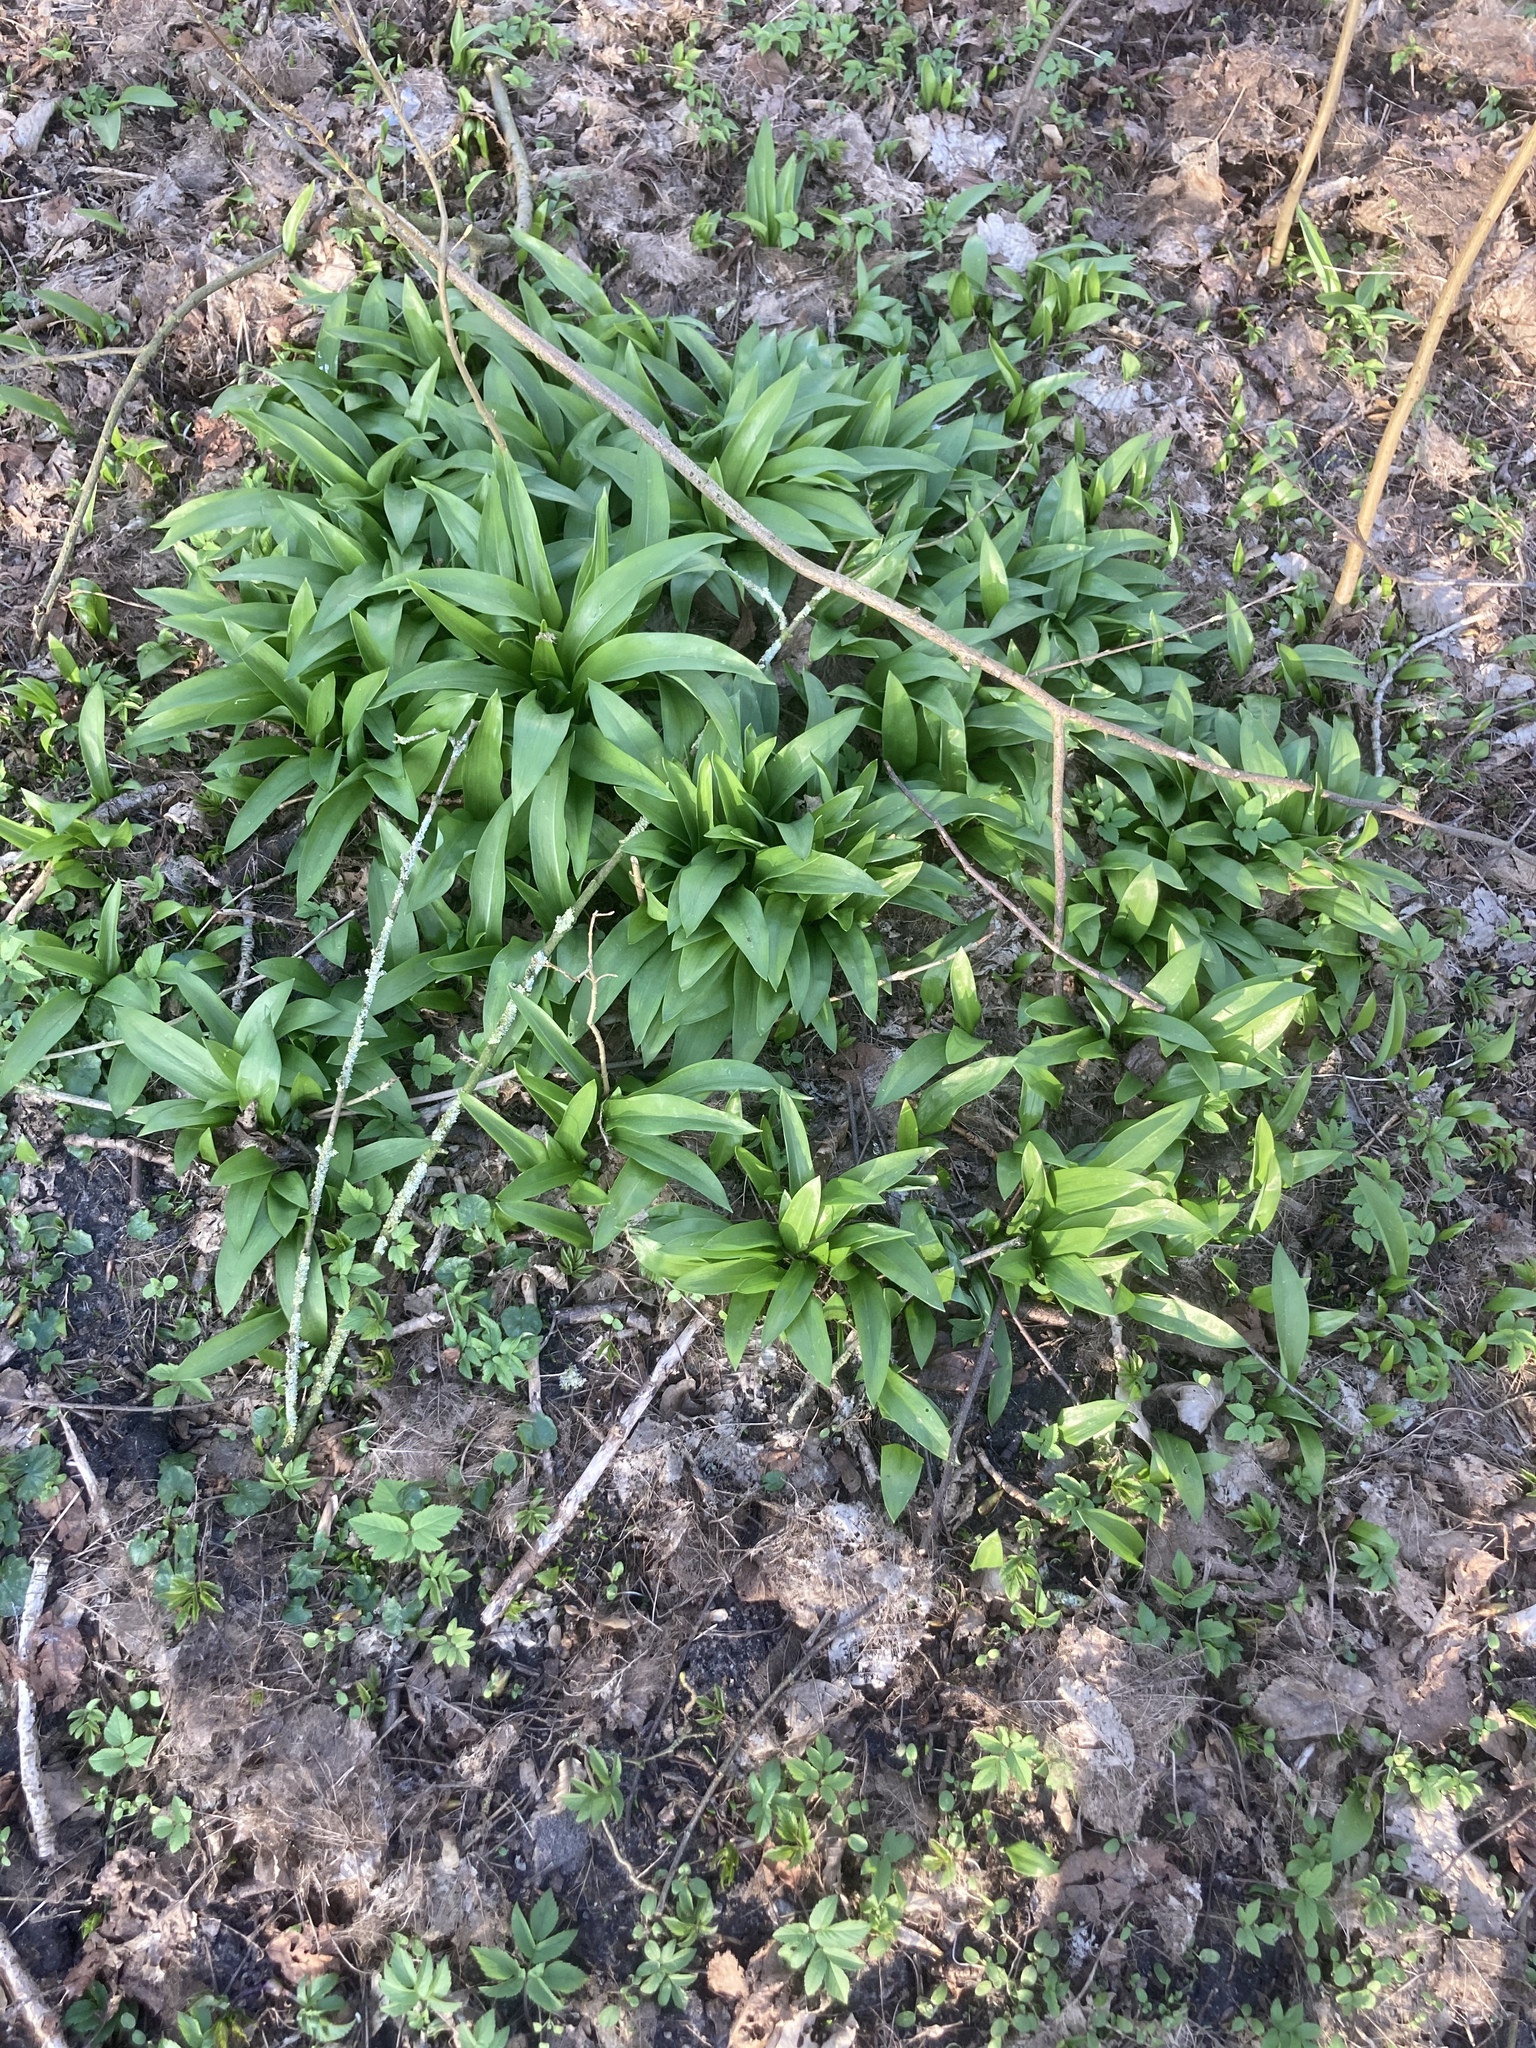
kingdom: Plantae
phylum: Tracheophyta
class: Liliopsida
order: Asparagales
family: Amaryllidaceae
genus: Allium
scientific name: Allium ursinum
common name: Ramsons
